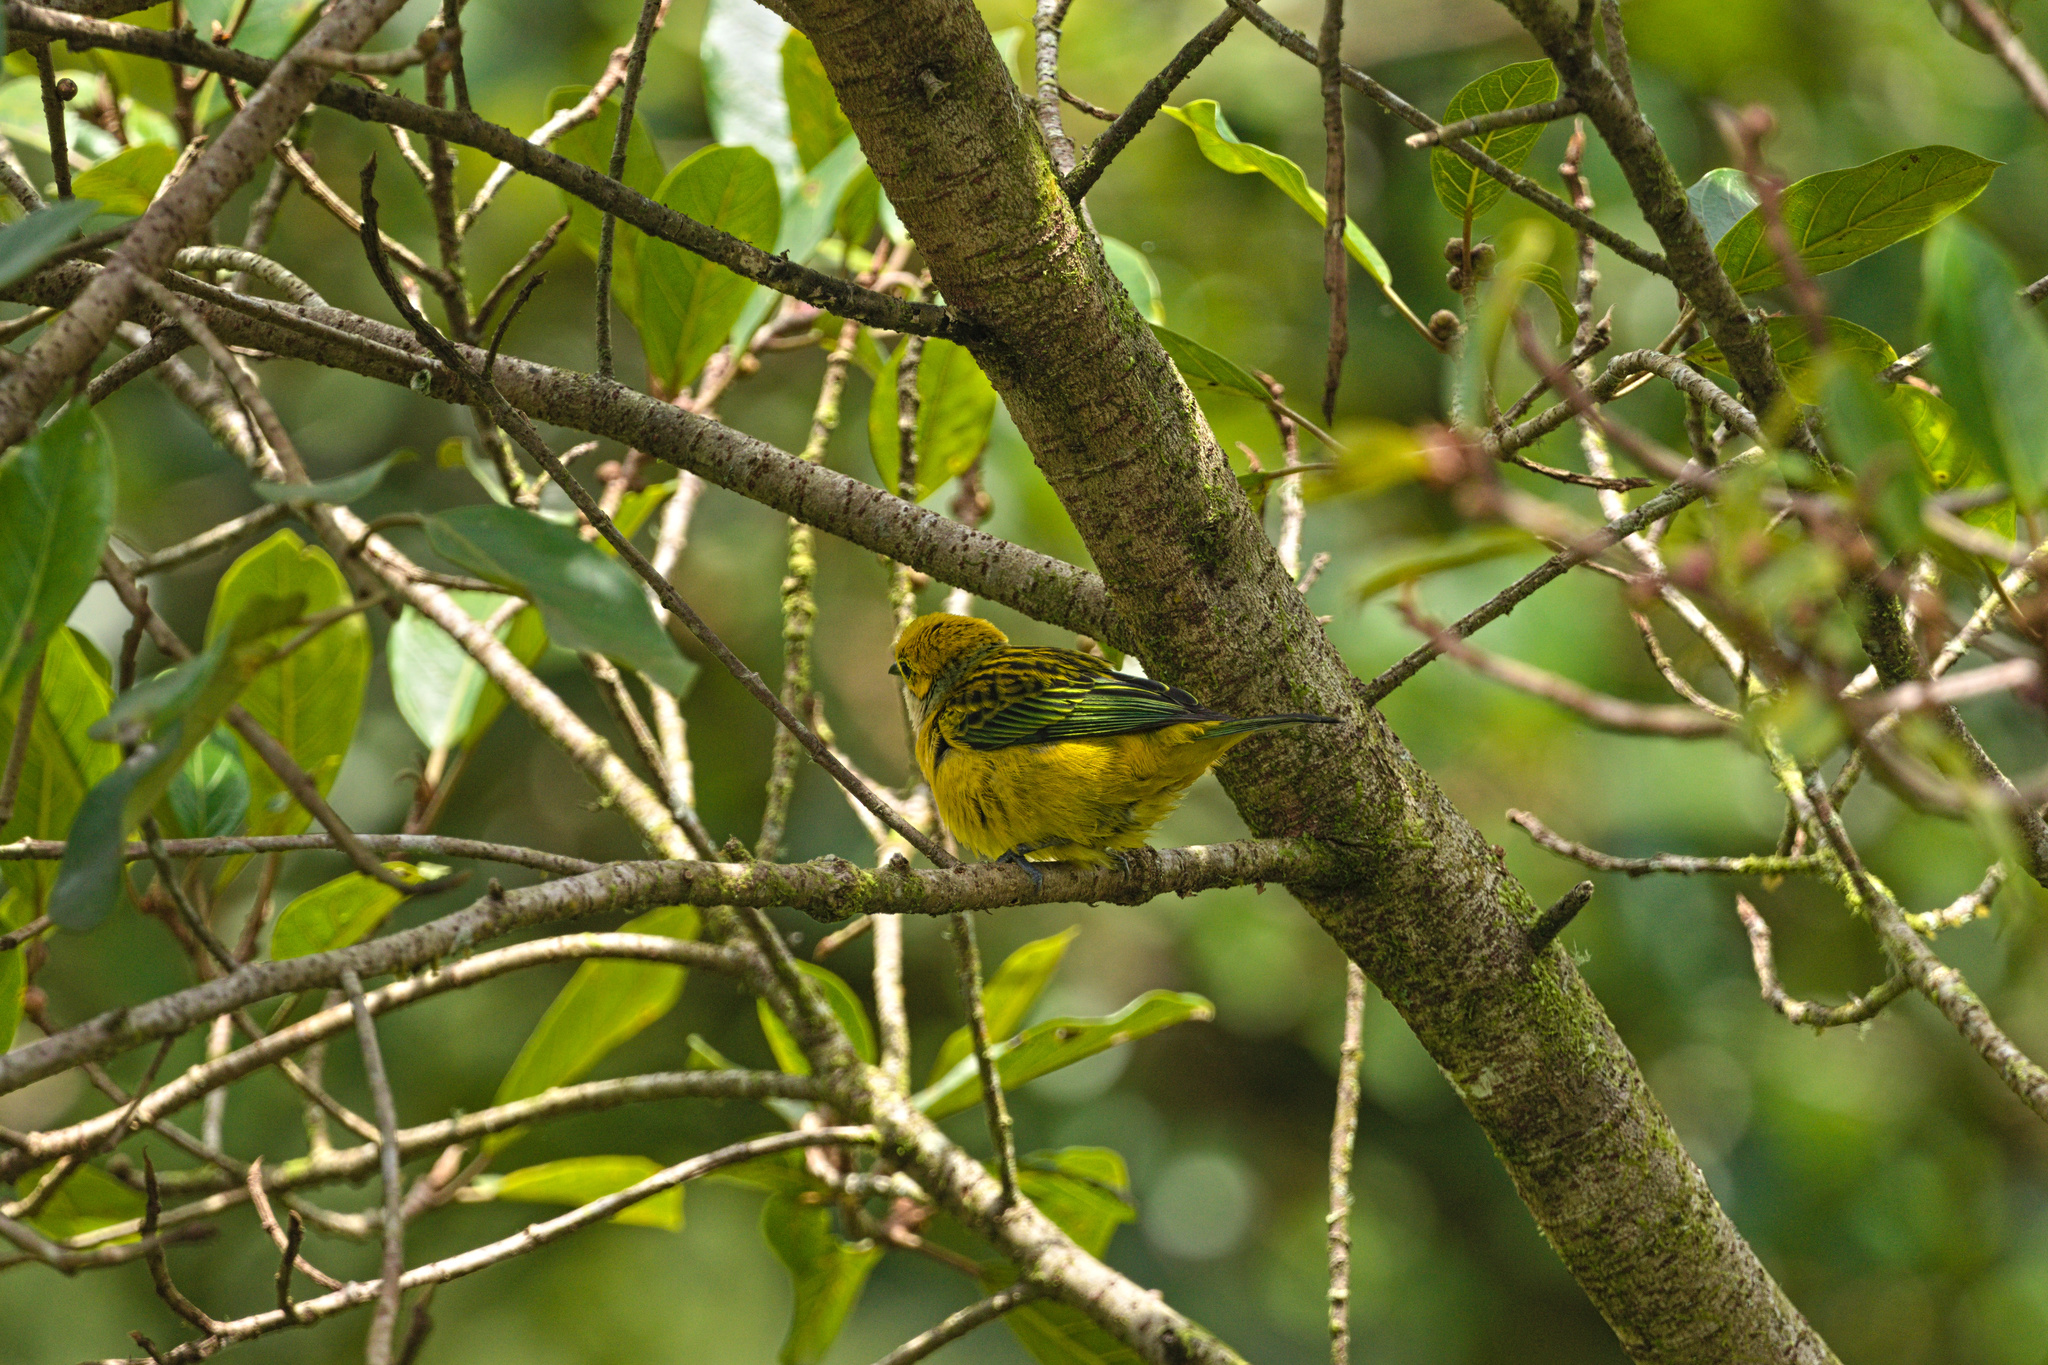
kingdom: Animalia
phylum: Chordata
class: Aves
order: Passeriformes
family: Thraupidae
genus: Tangara
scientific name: Tangara icterocephala
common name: Silver-throated tanager
